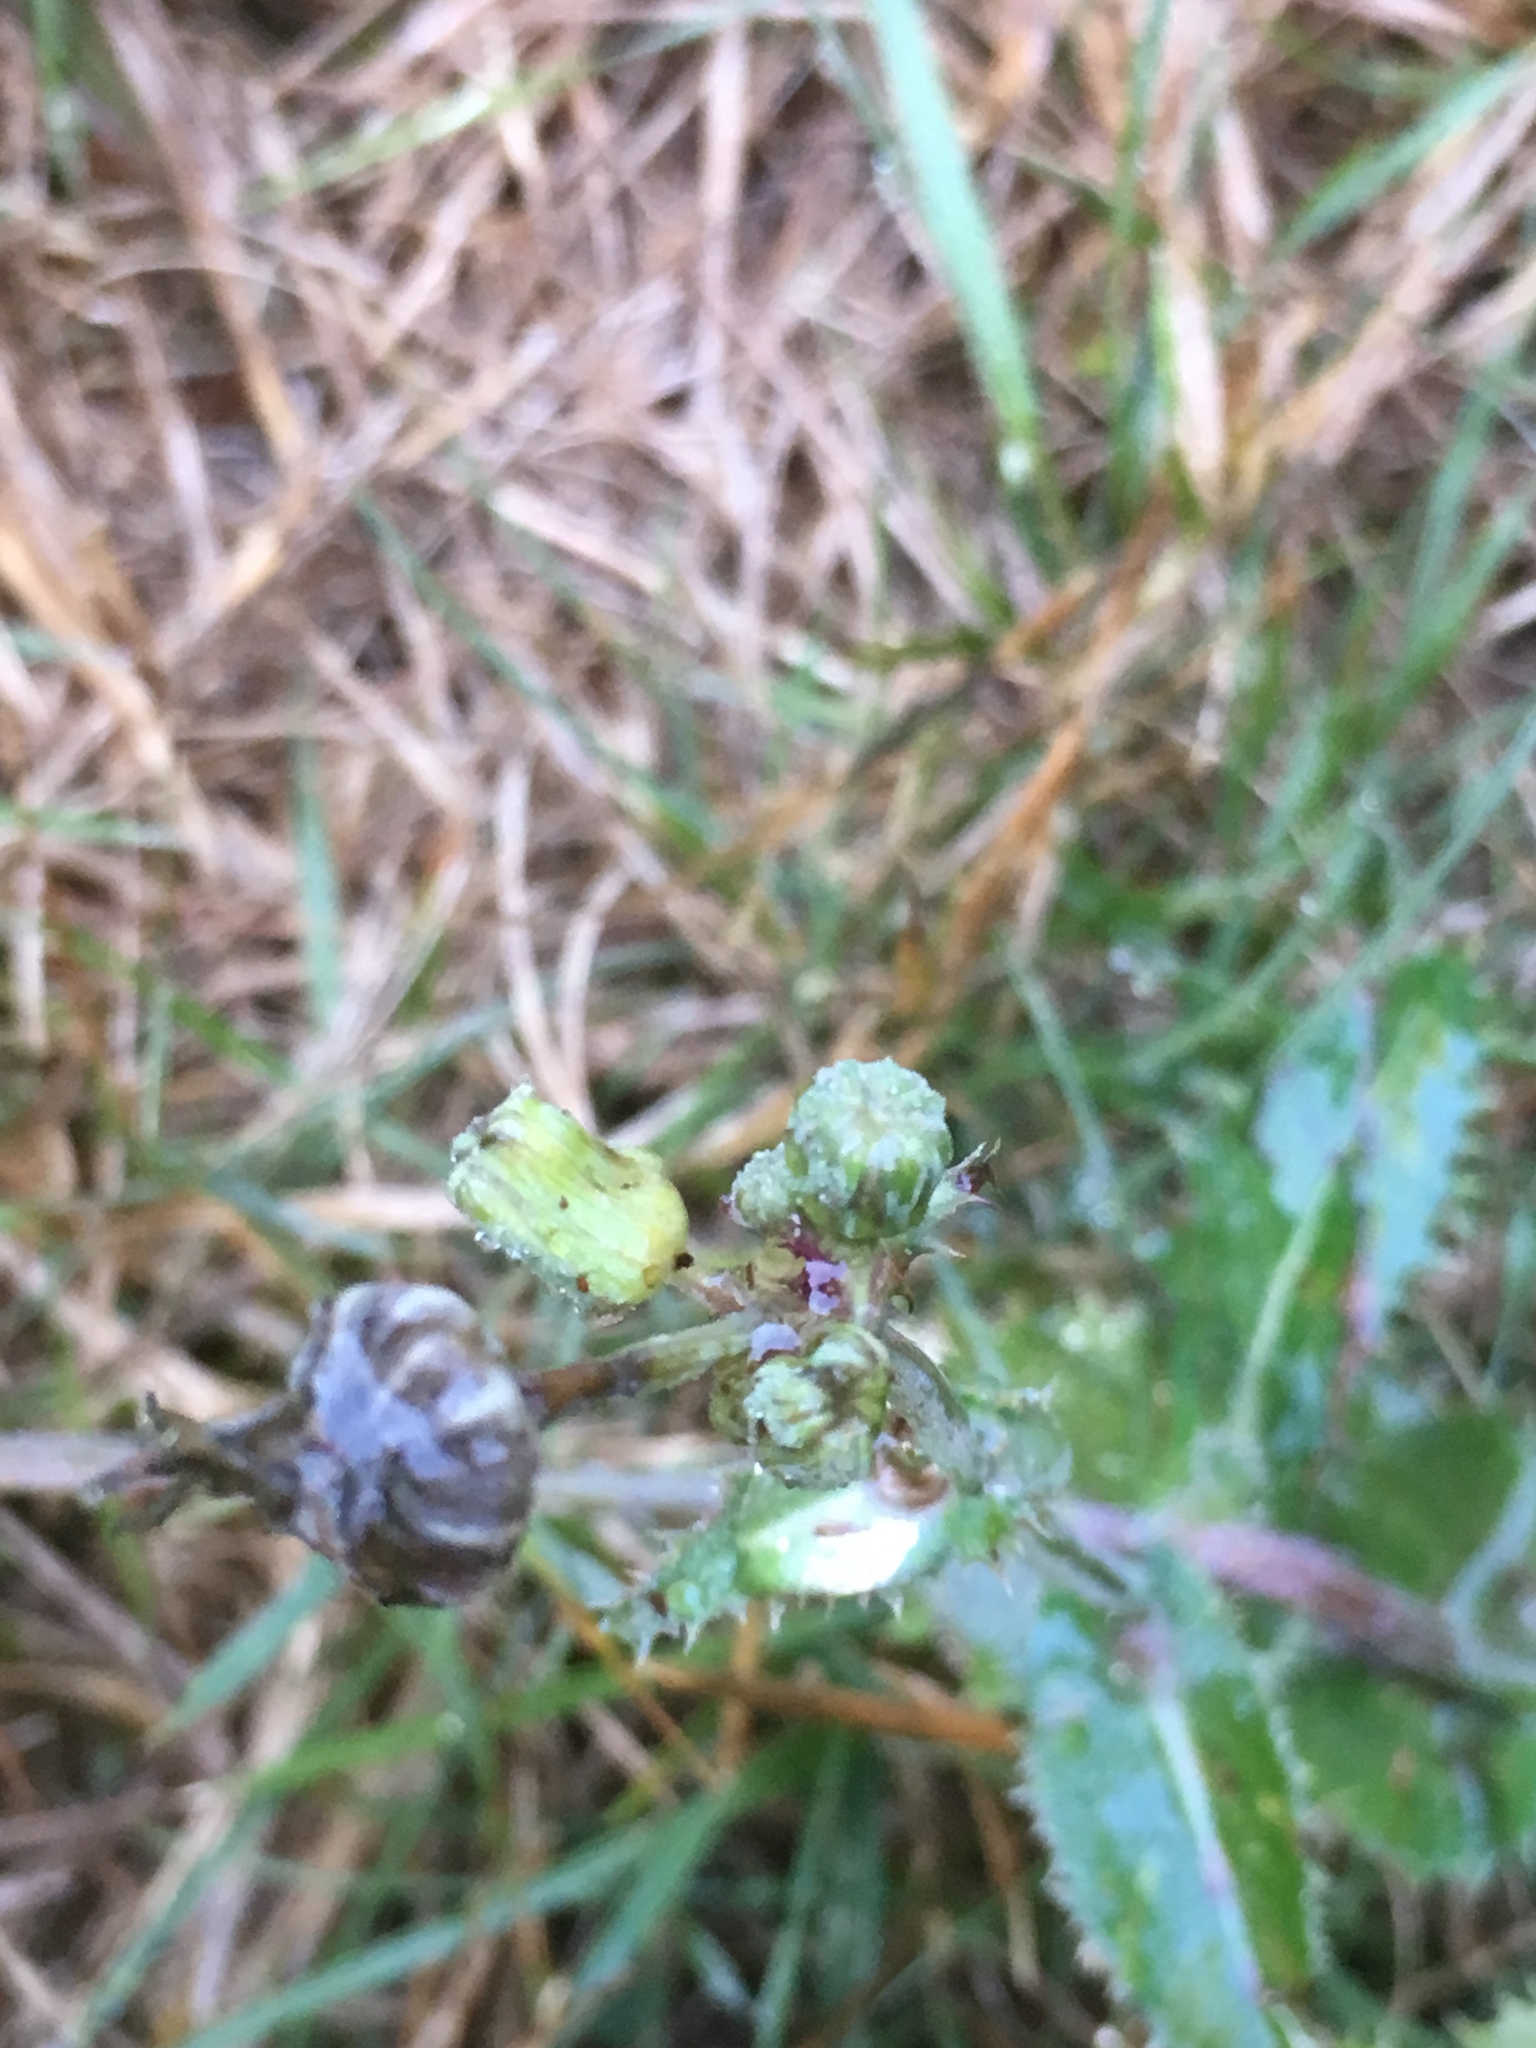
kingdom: Plantae
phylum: Tracheophyta
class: Magnoliopsida
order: Asterales
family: Asteraceae
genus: Sonchus
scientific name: Sonchus asper
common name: Prickly sow-thistle
